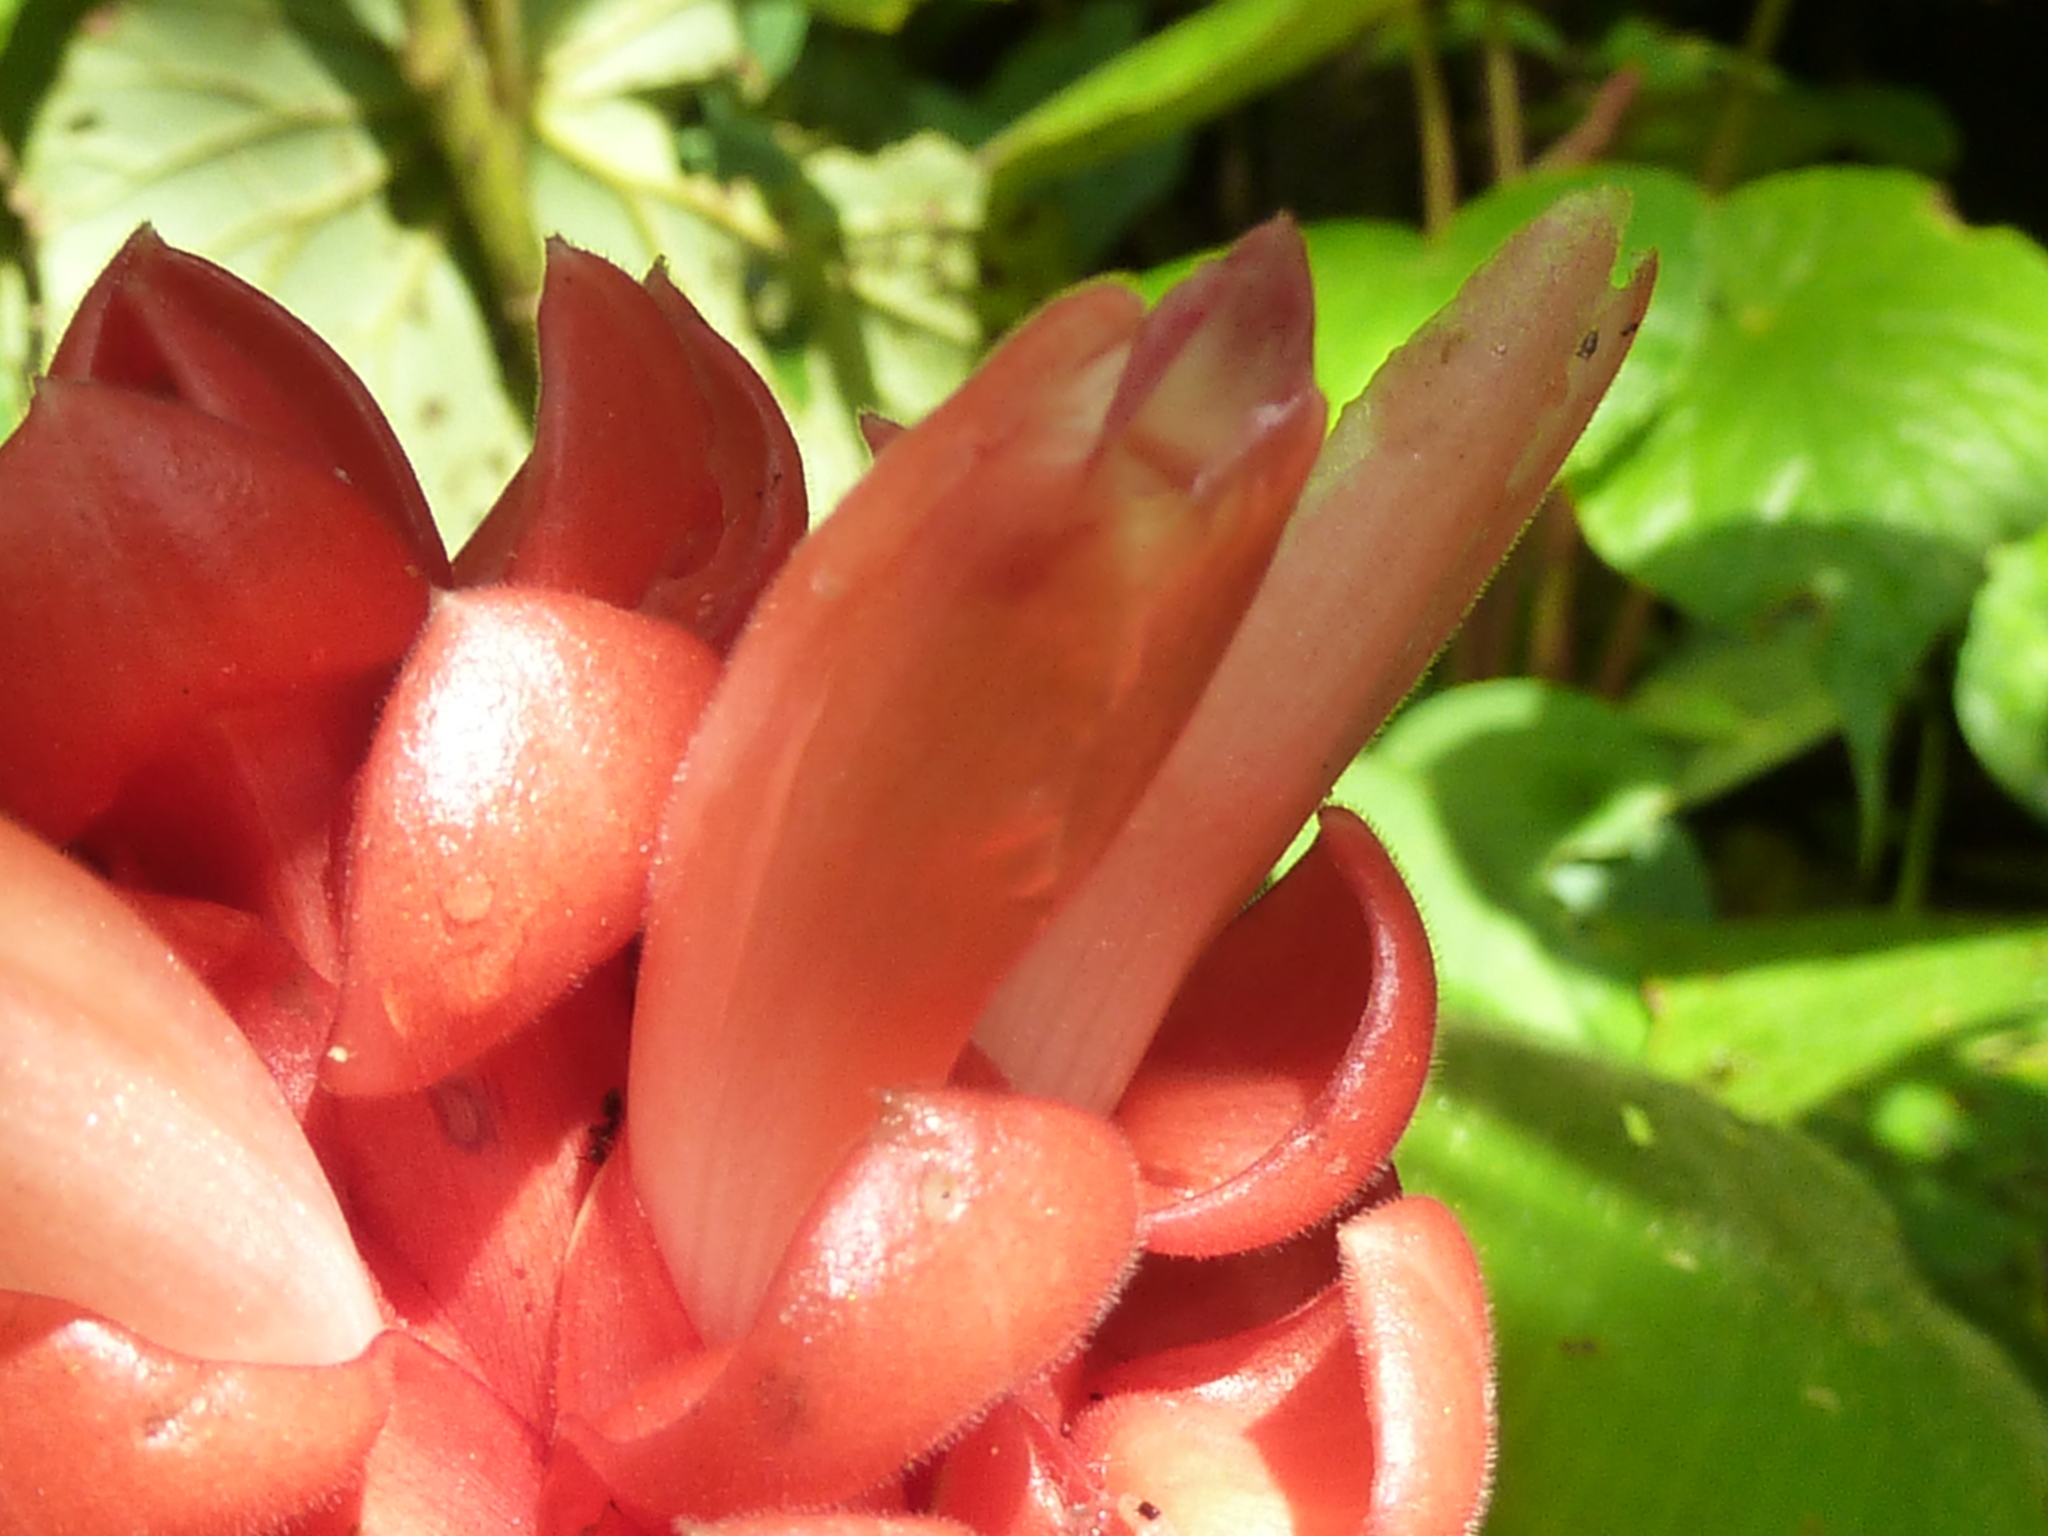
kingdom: Plantae
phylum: Tracheophyta
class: Liliopsida
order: Zingiberales
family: Costaceae
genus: Costus
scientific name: Costus osae
